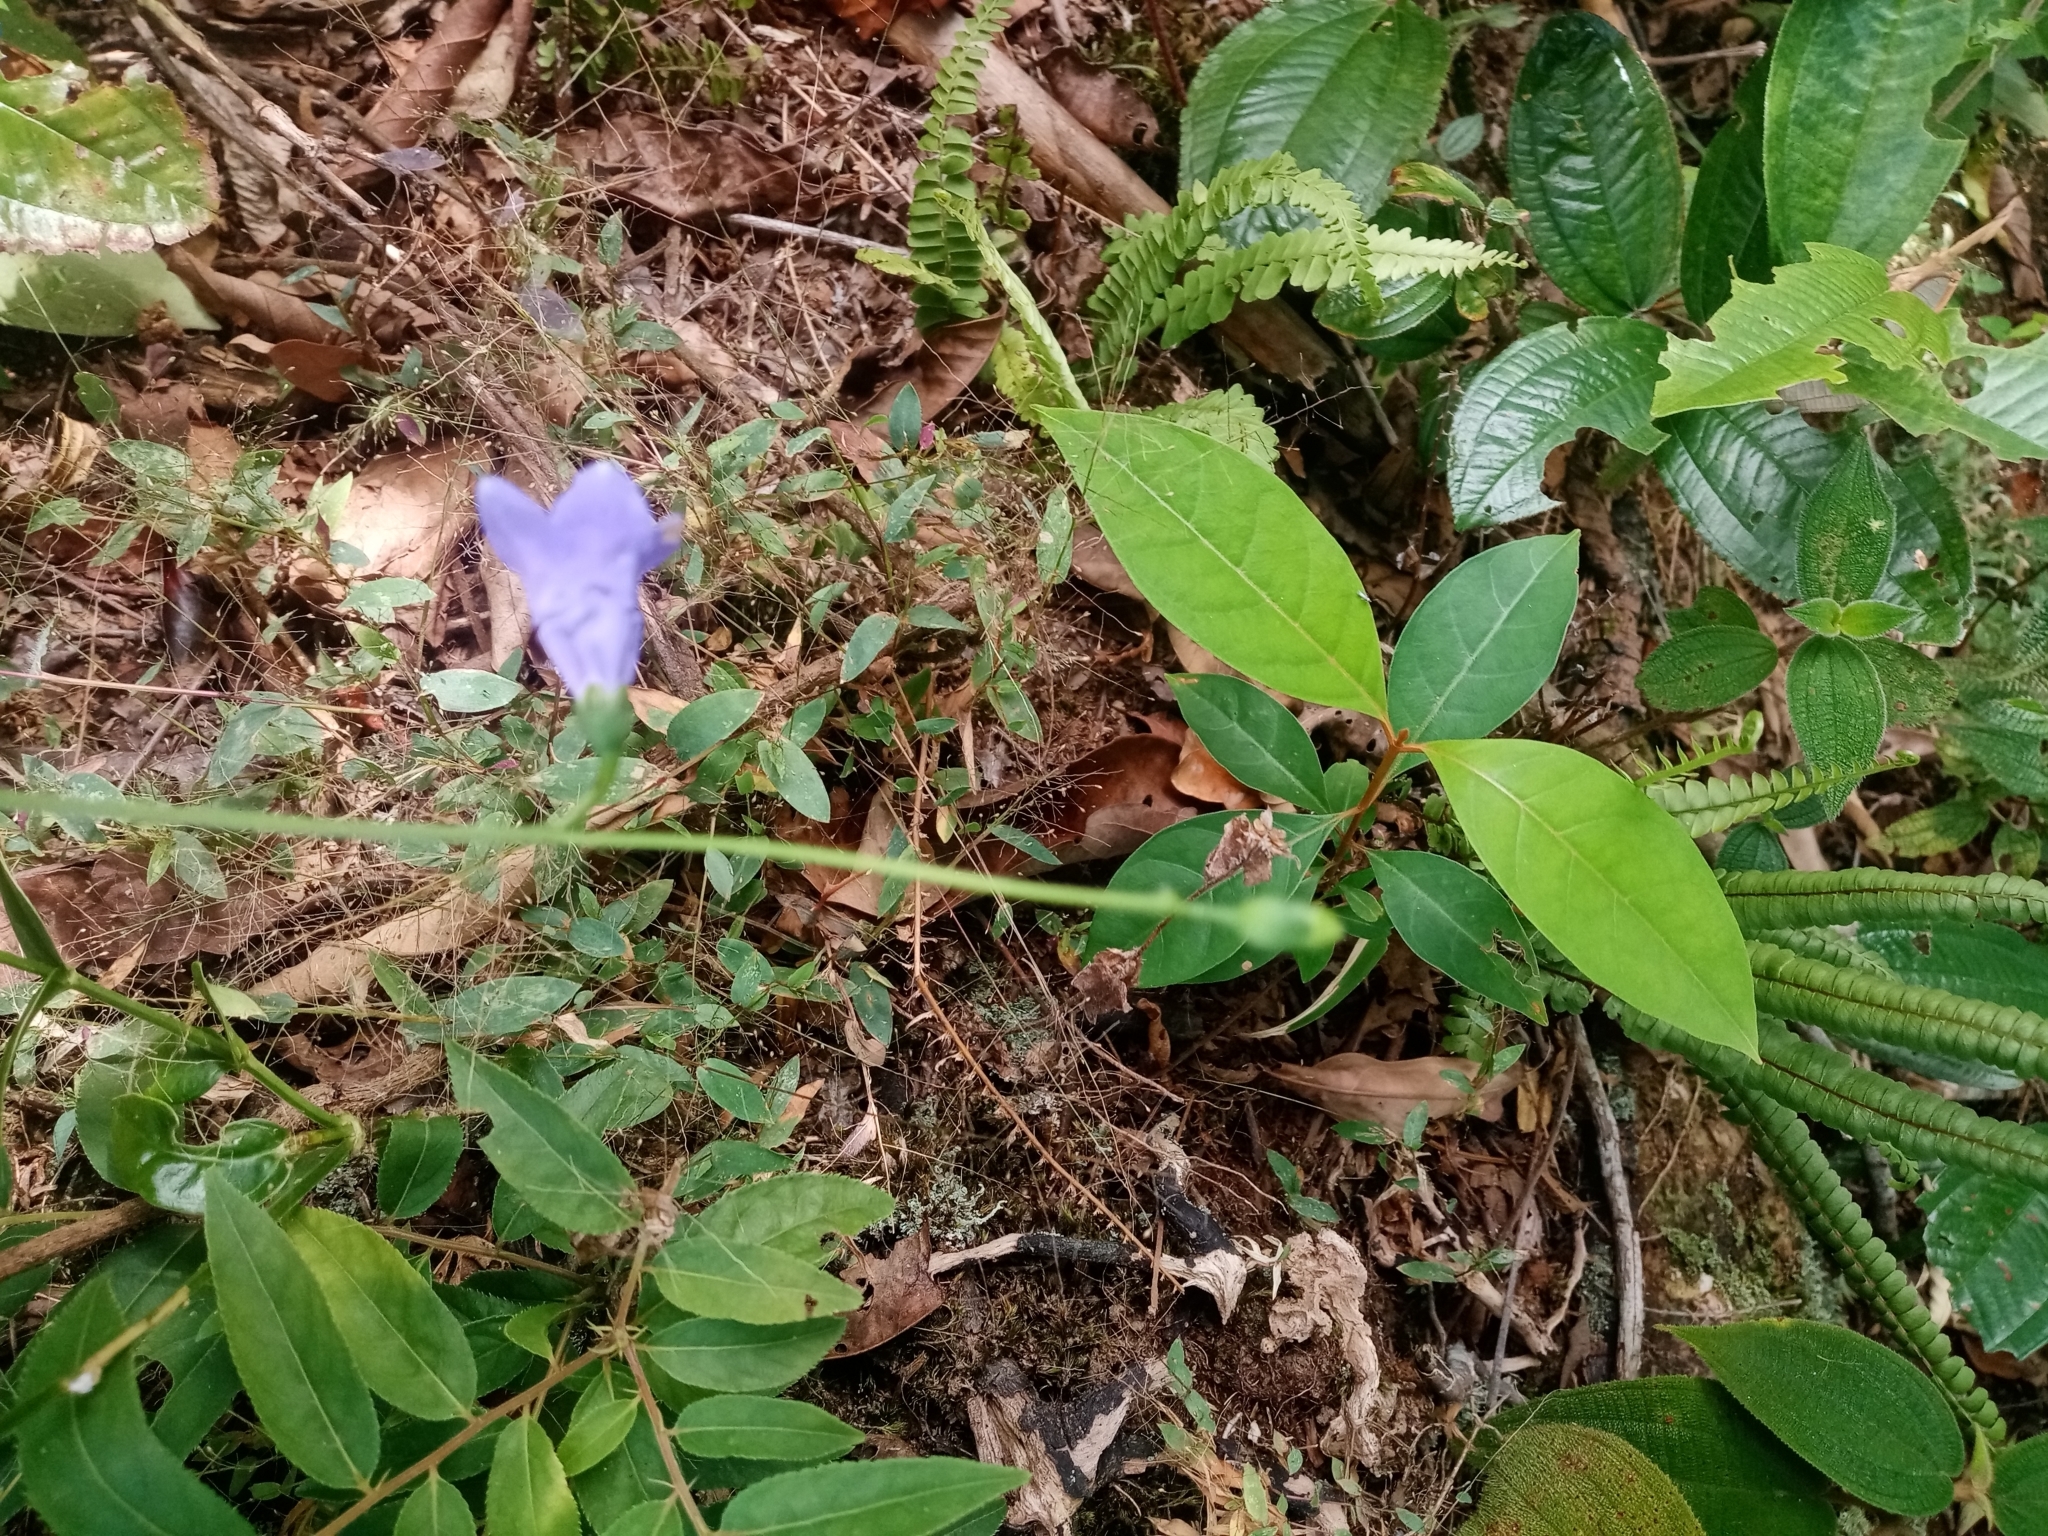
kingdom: Plantae
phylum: Tracheophyta
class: Magnoliopsida
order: Gentianales
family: Gentianaceae
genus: Chelonanthus
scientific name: Chelonanthus purpurascens
